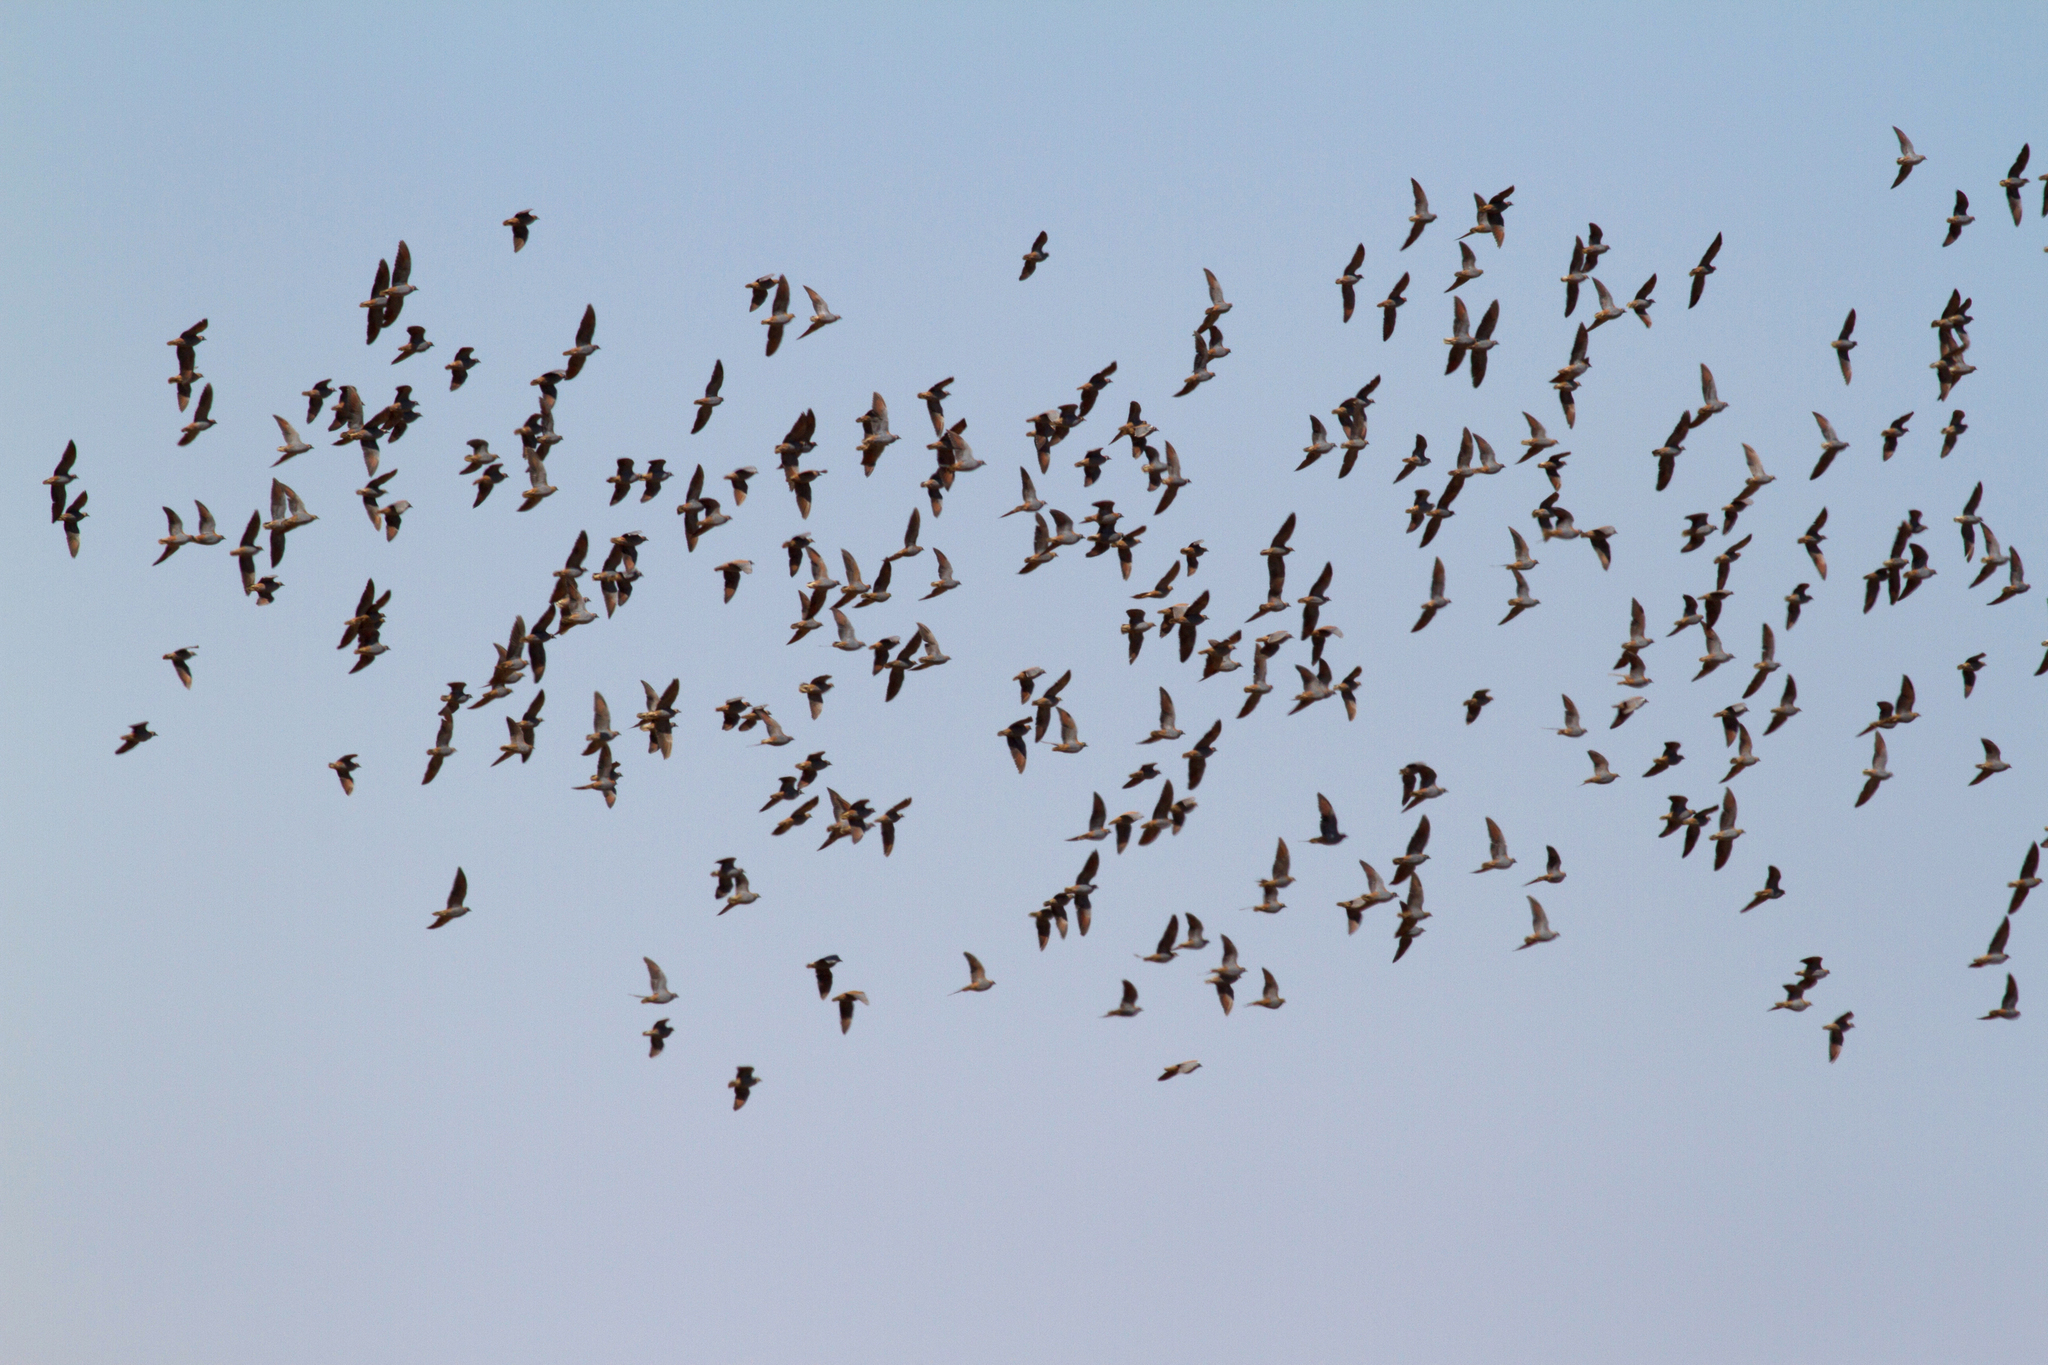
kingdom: Animalia
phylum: Chordata
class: Aves
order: Columbiformes
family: Columbidae
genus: Phaps
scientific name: Phaps histrionica
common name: Flock bronzewing
